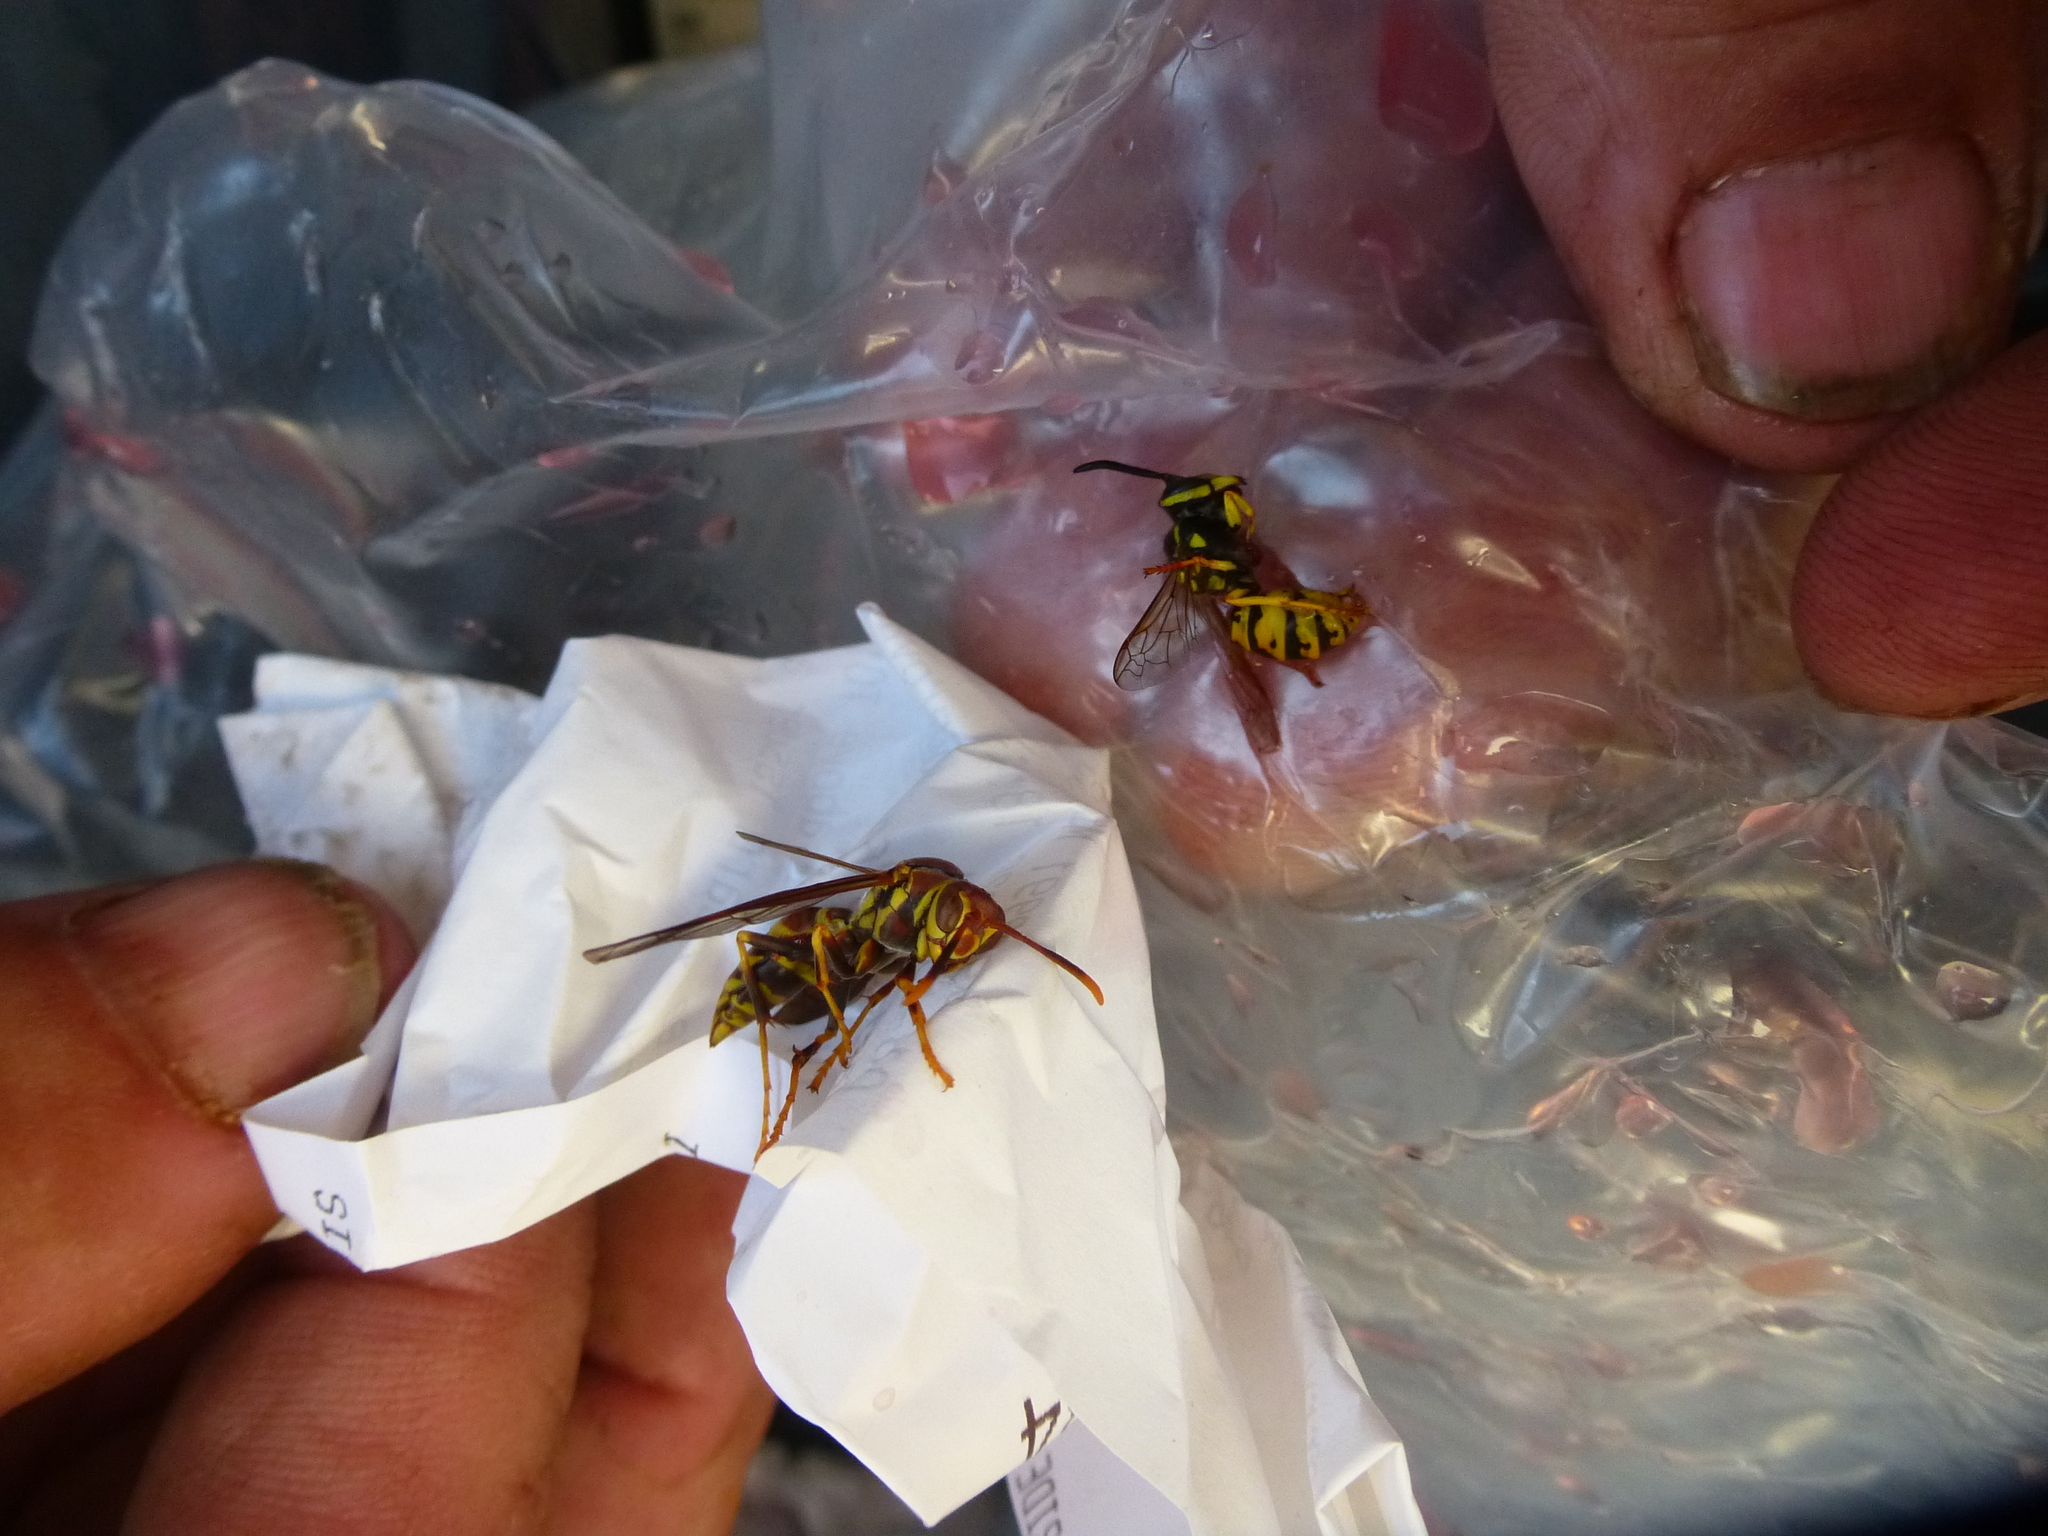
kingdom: Animalia
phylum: Arthropoda
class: Insecta
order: Hymenoptera
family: Eumenidae
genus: Polistes
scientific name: Polistes exclamans
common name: Paper wasp
